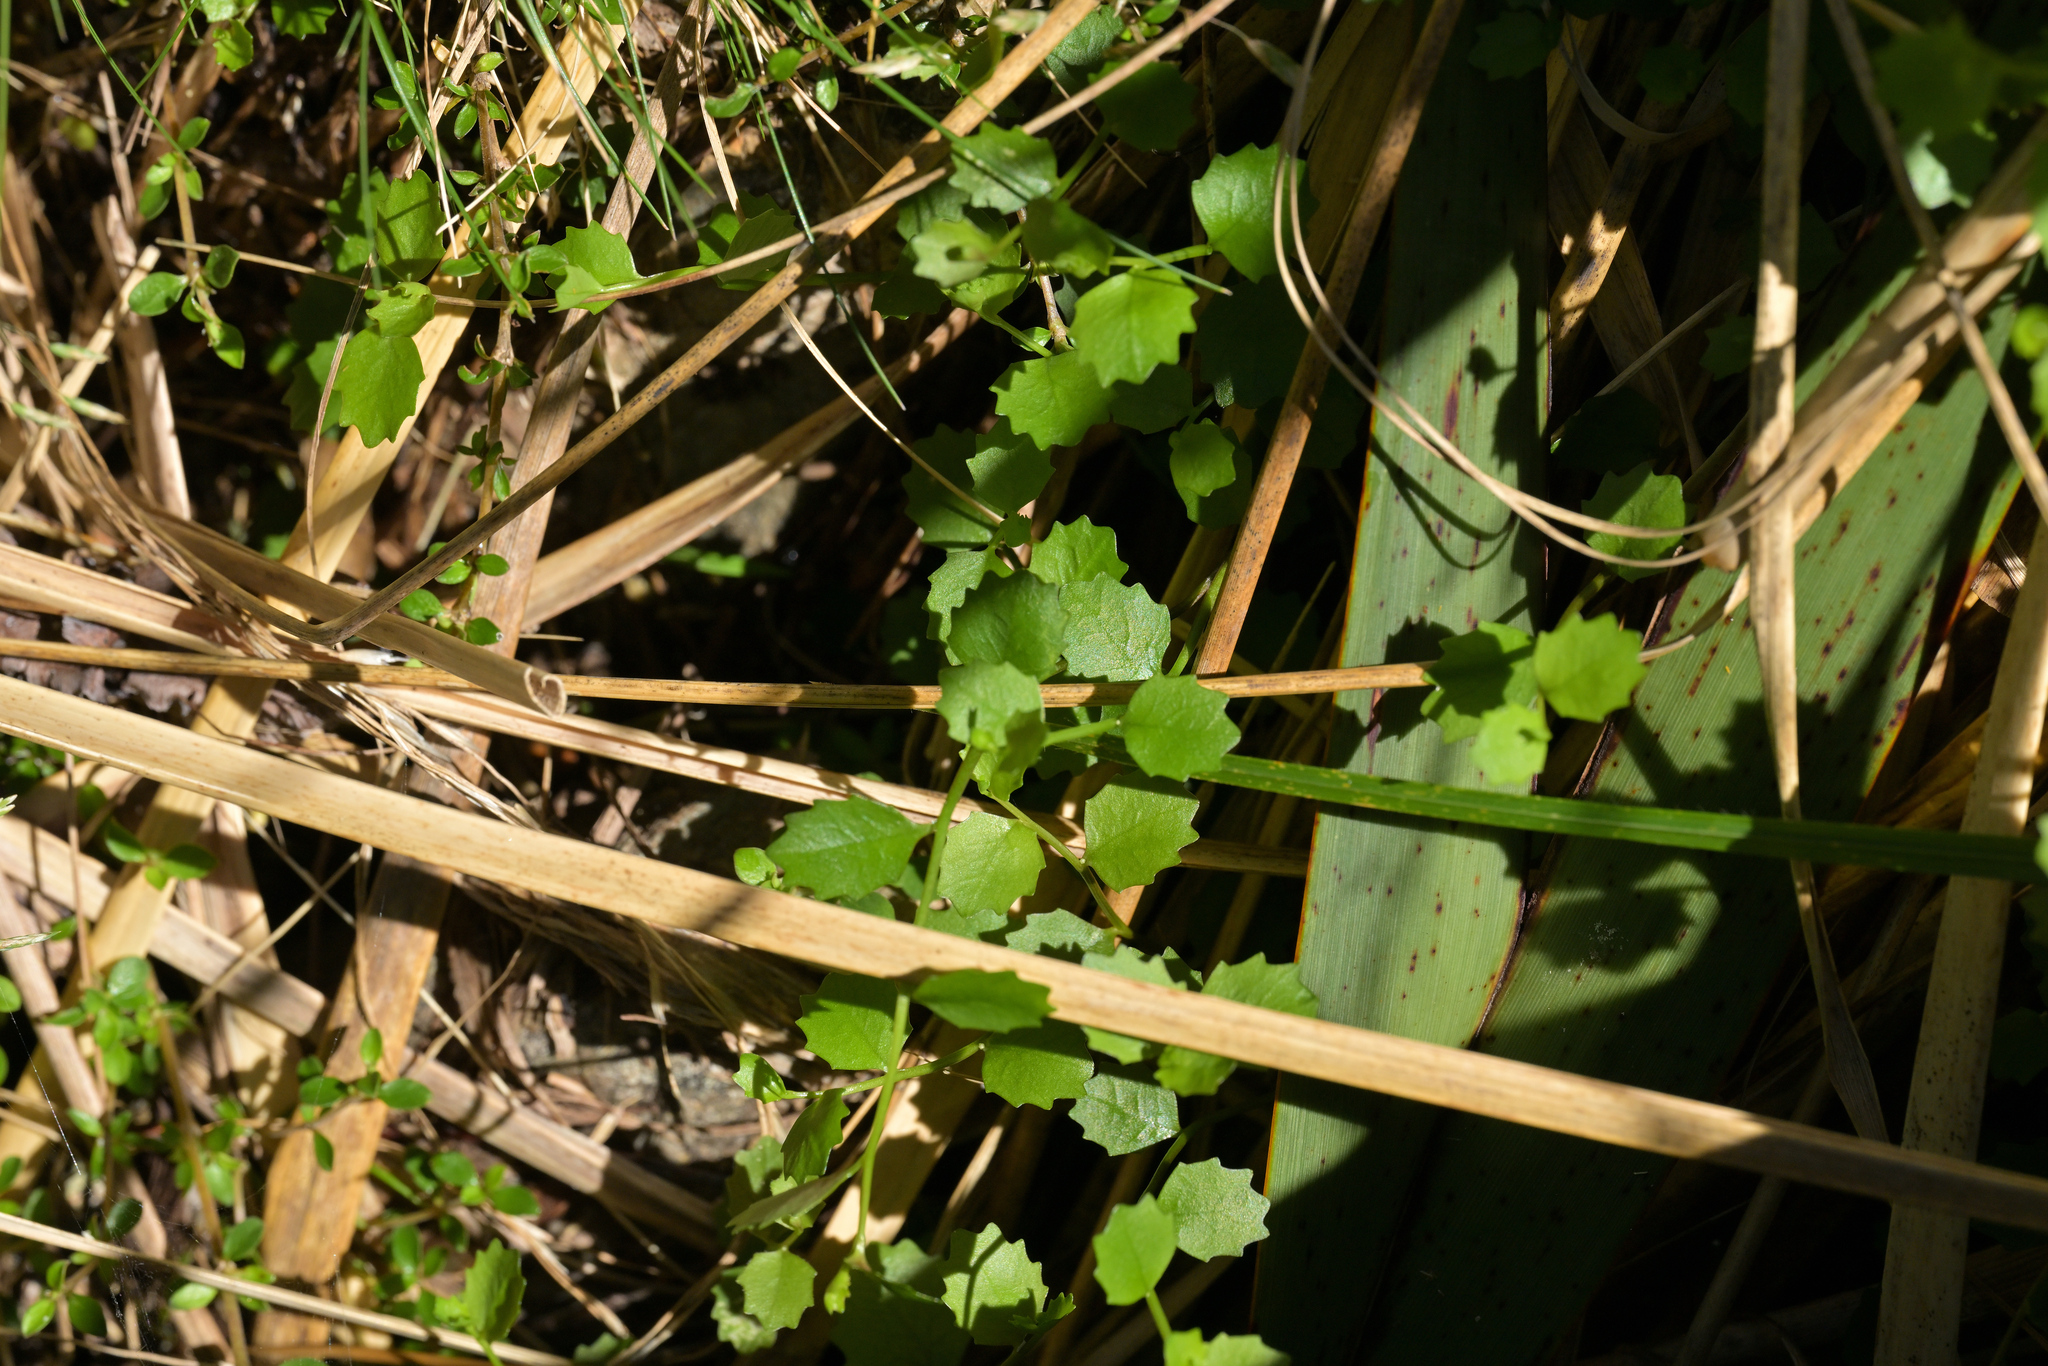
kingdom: Plantae
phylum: Tracheophyta
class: Magnoliopsida
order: Asterales
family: Campanulaceae
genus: Lobelia
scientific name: Lobelia angulata
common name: Lawn lobelia
